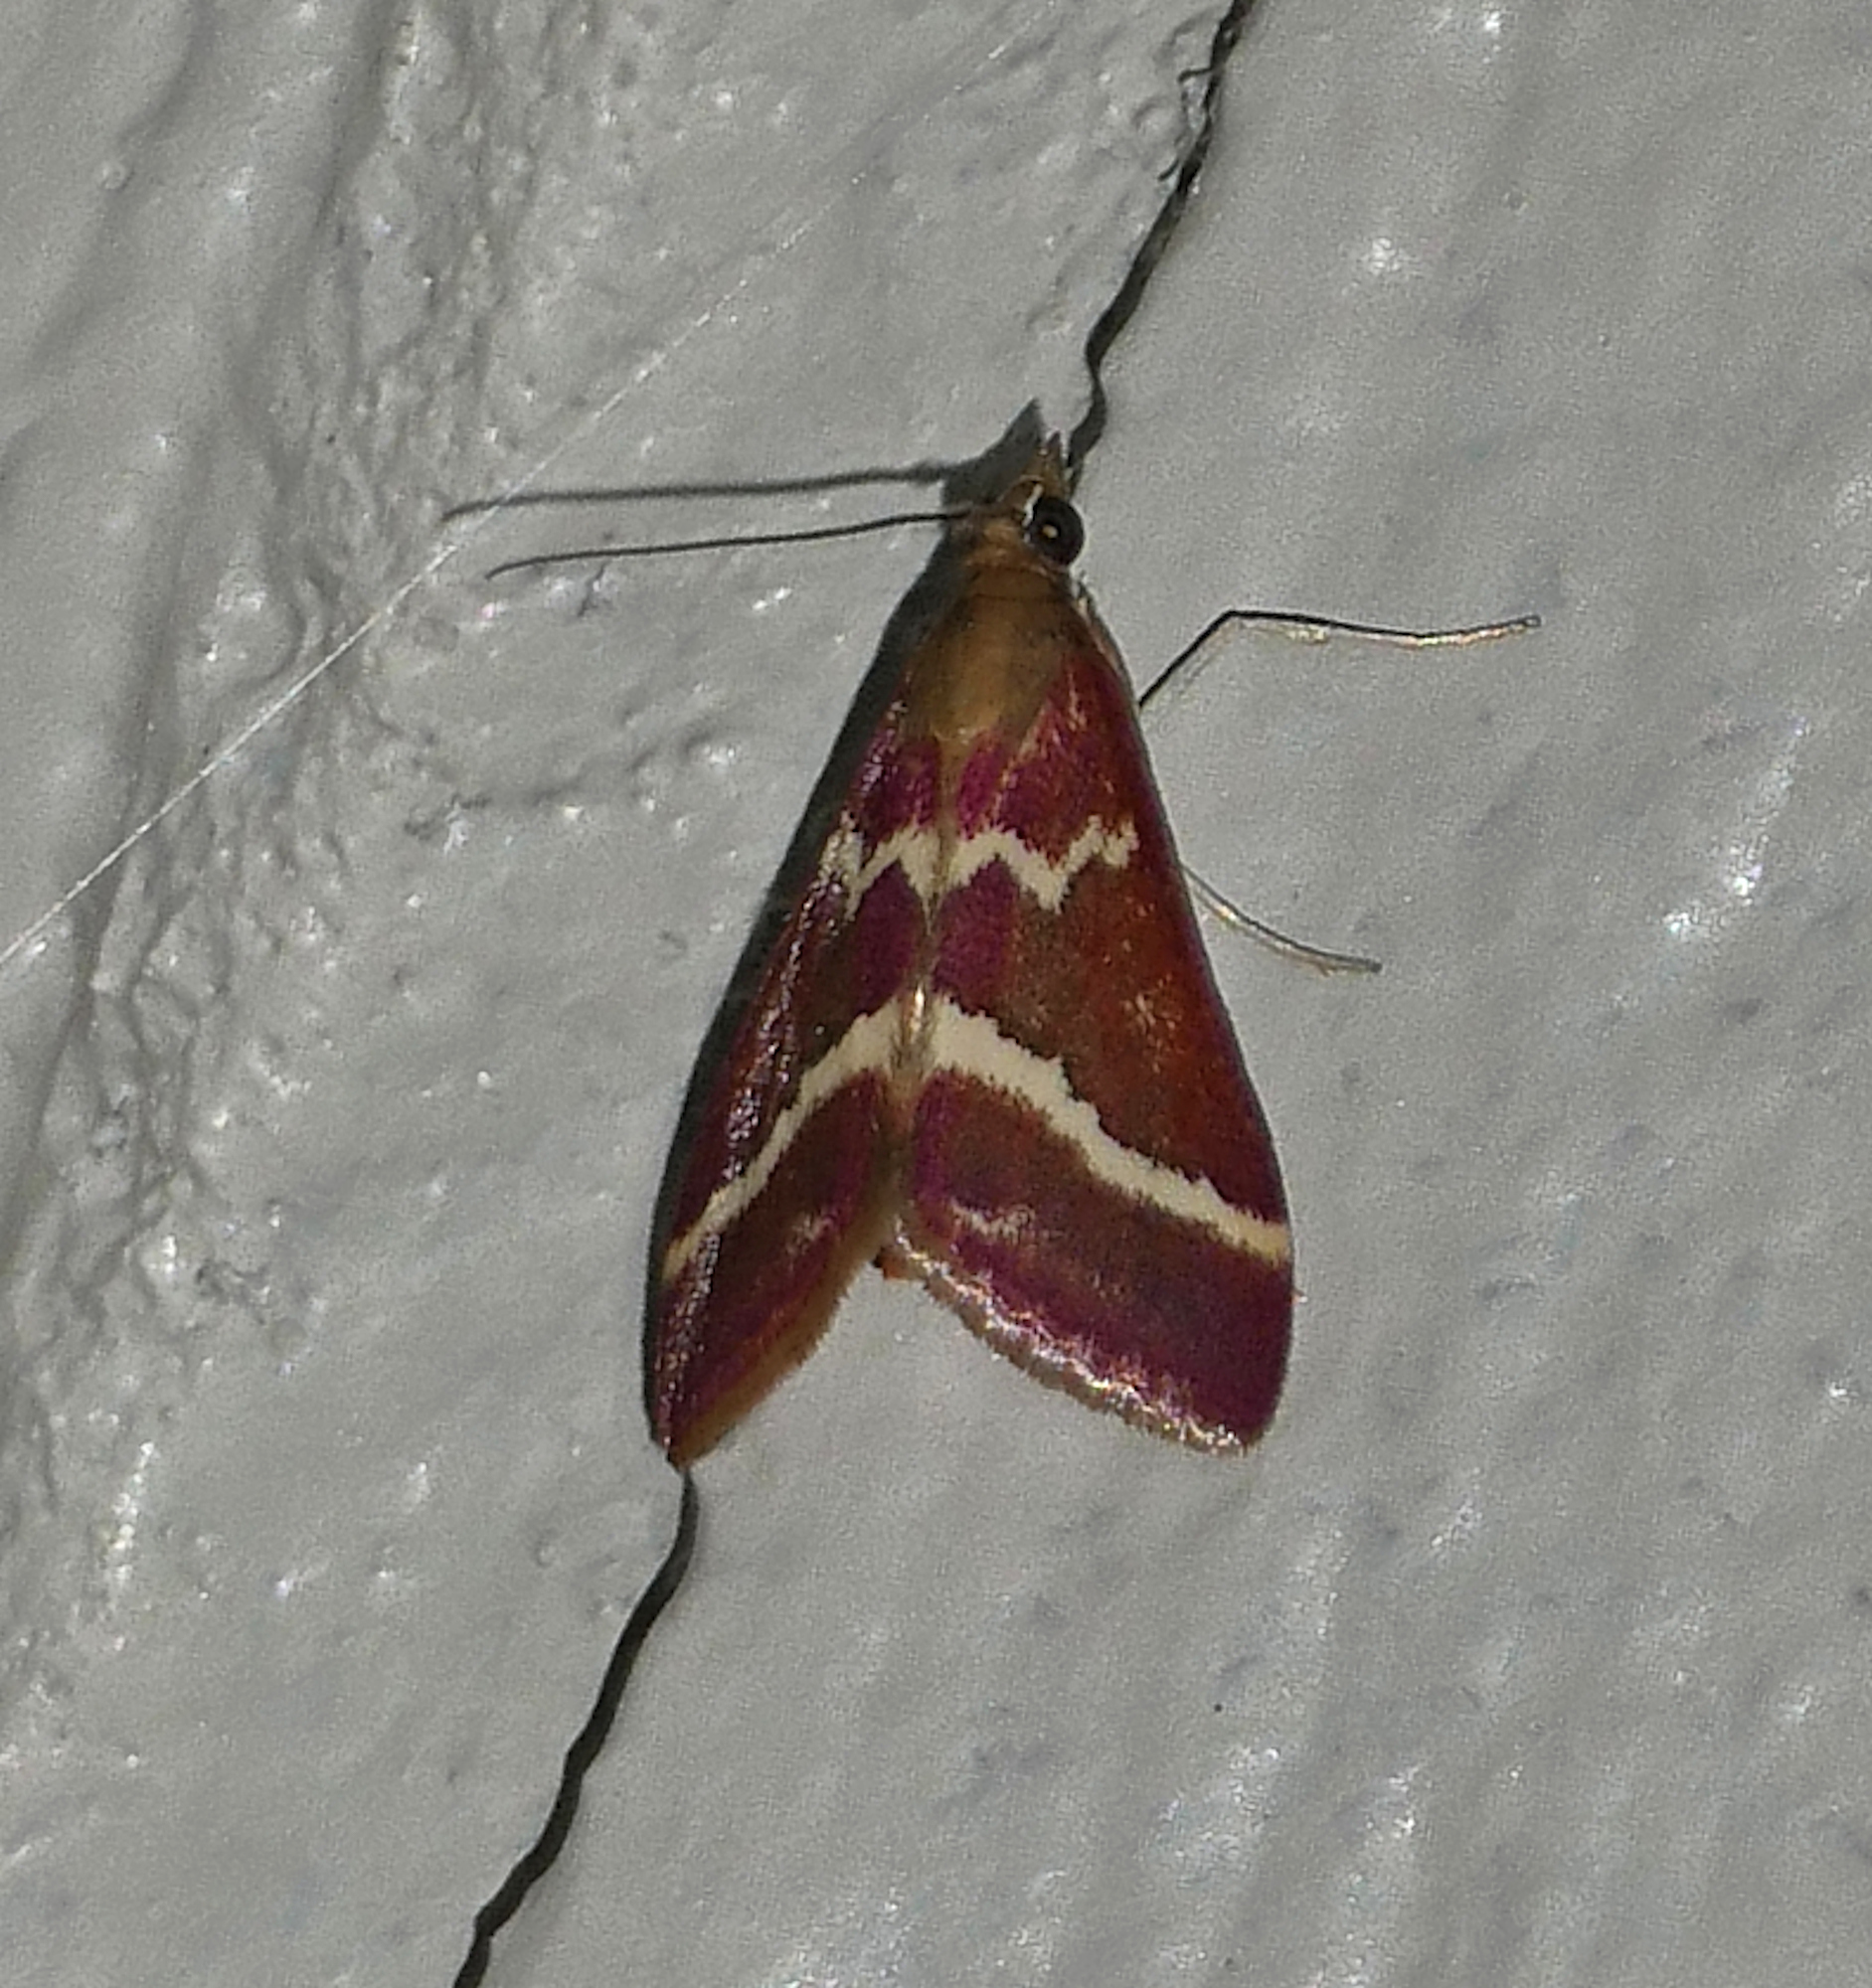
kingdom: Animalia
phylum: Arthropoda
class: Insecta
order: Lepidoptera
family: Crambidae
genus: Pyrausta
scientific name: Pyrausta volupialis
